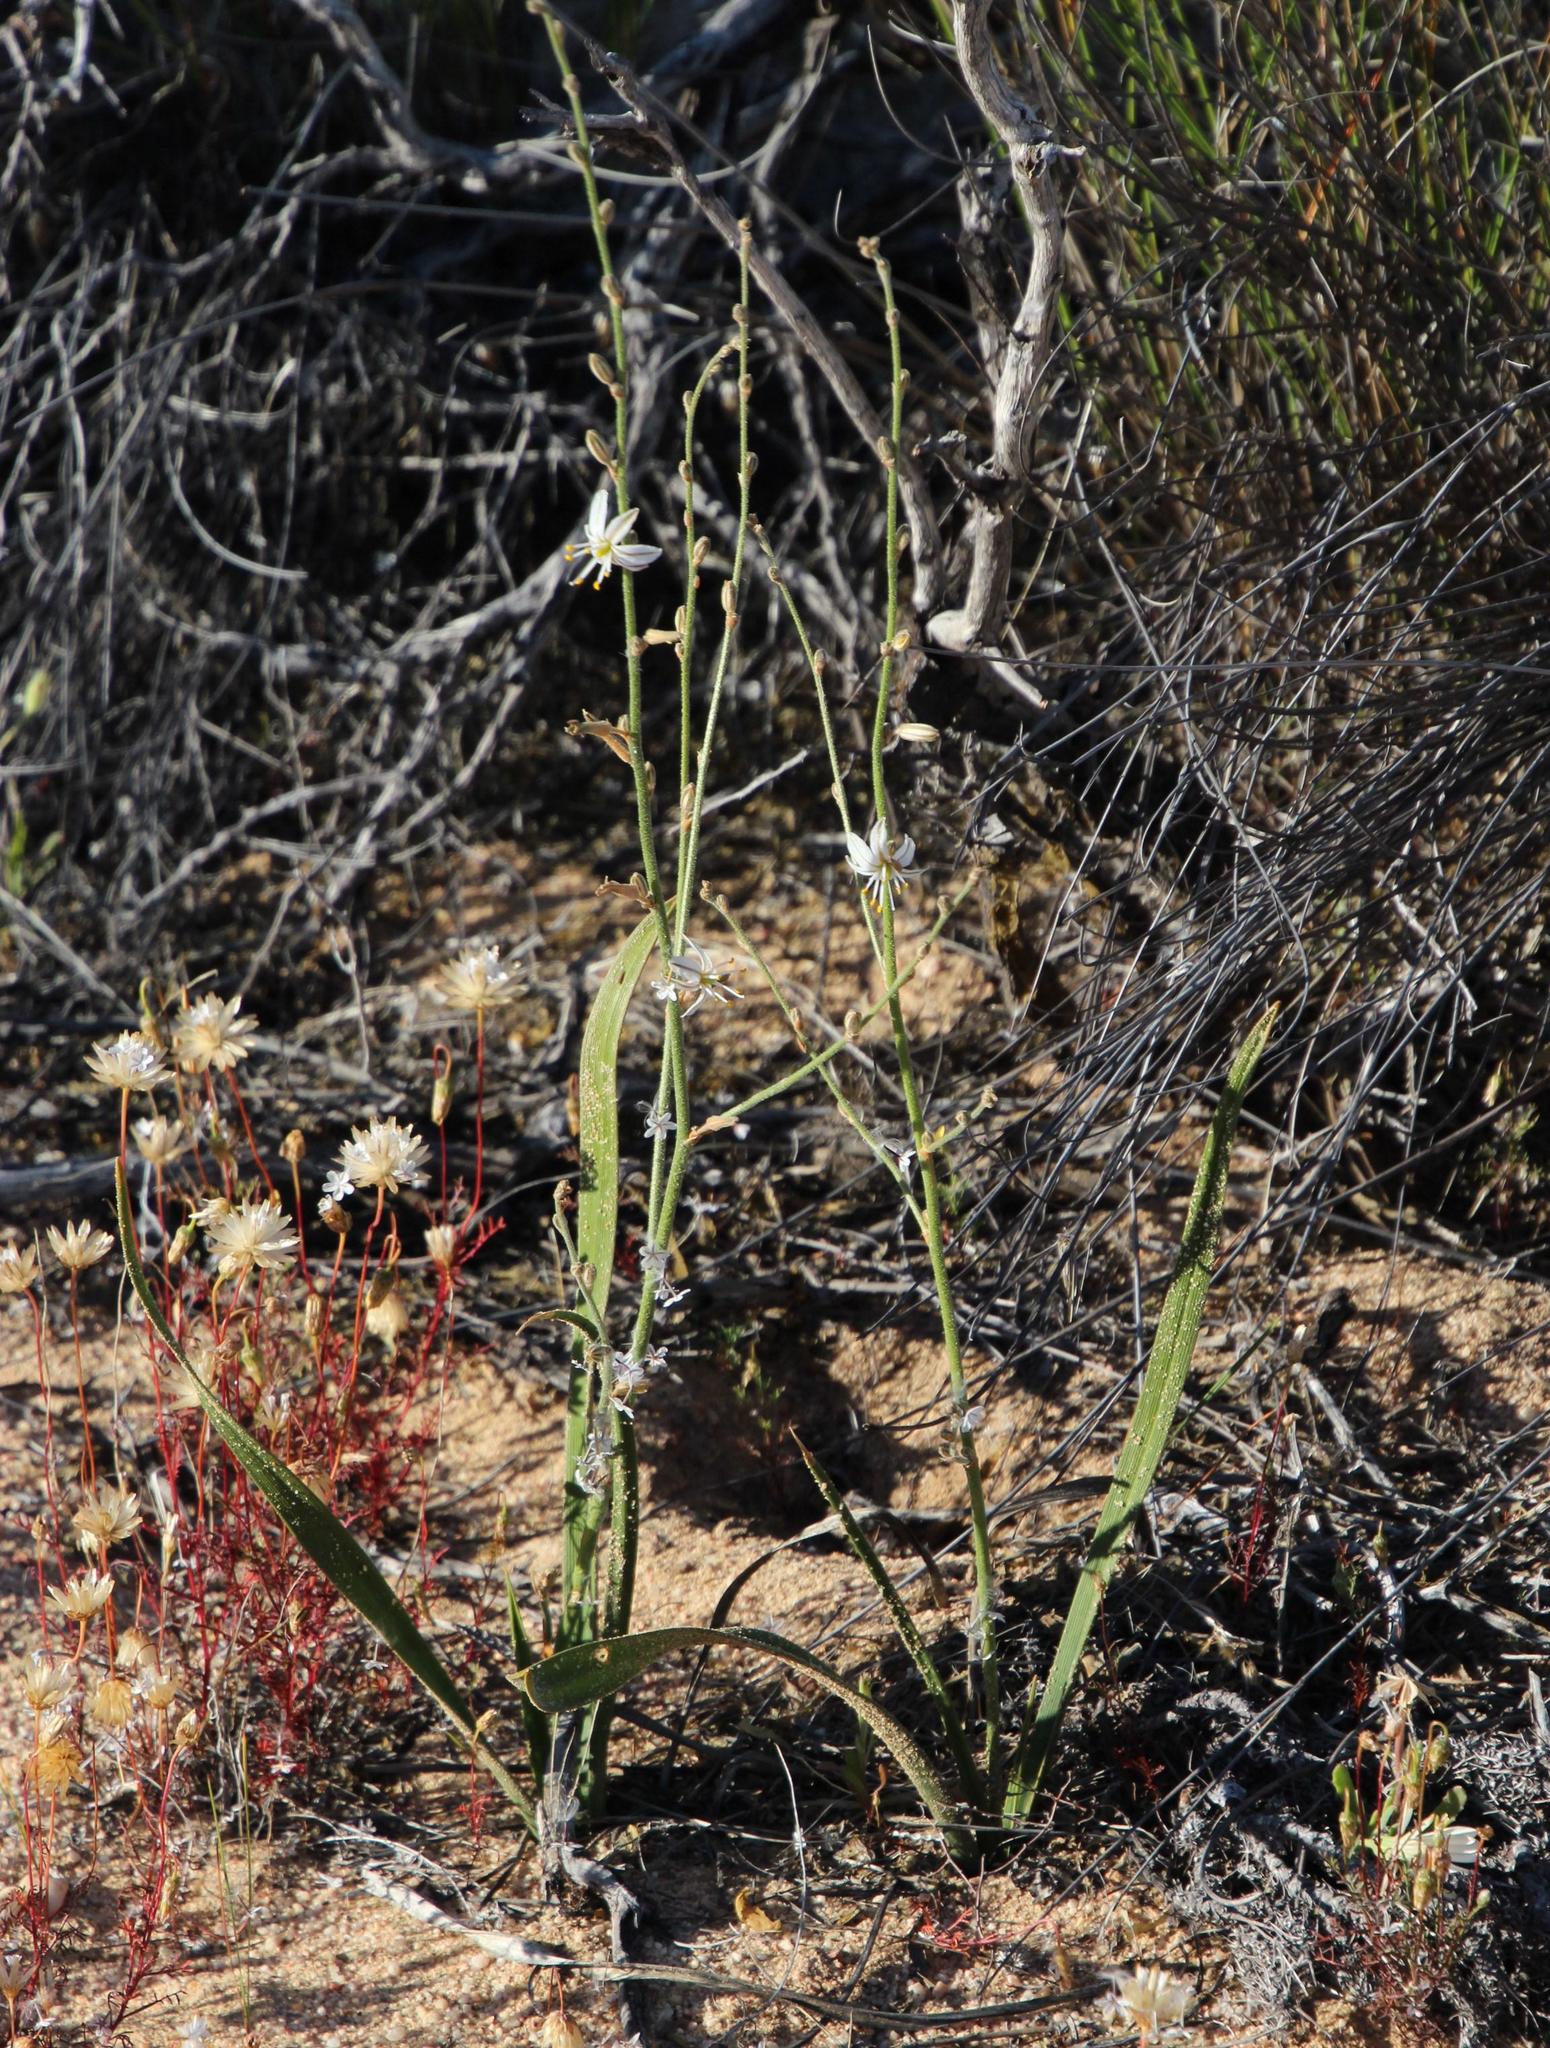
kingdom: Plantae
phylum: Tracheophyta
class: Liliopsida
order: Asparagales
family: Asparagaceae
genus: Chlorophytum
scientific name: Chlorophytum viscosum
